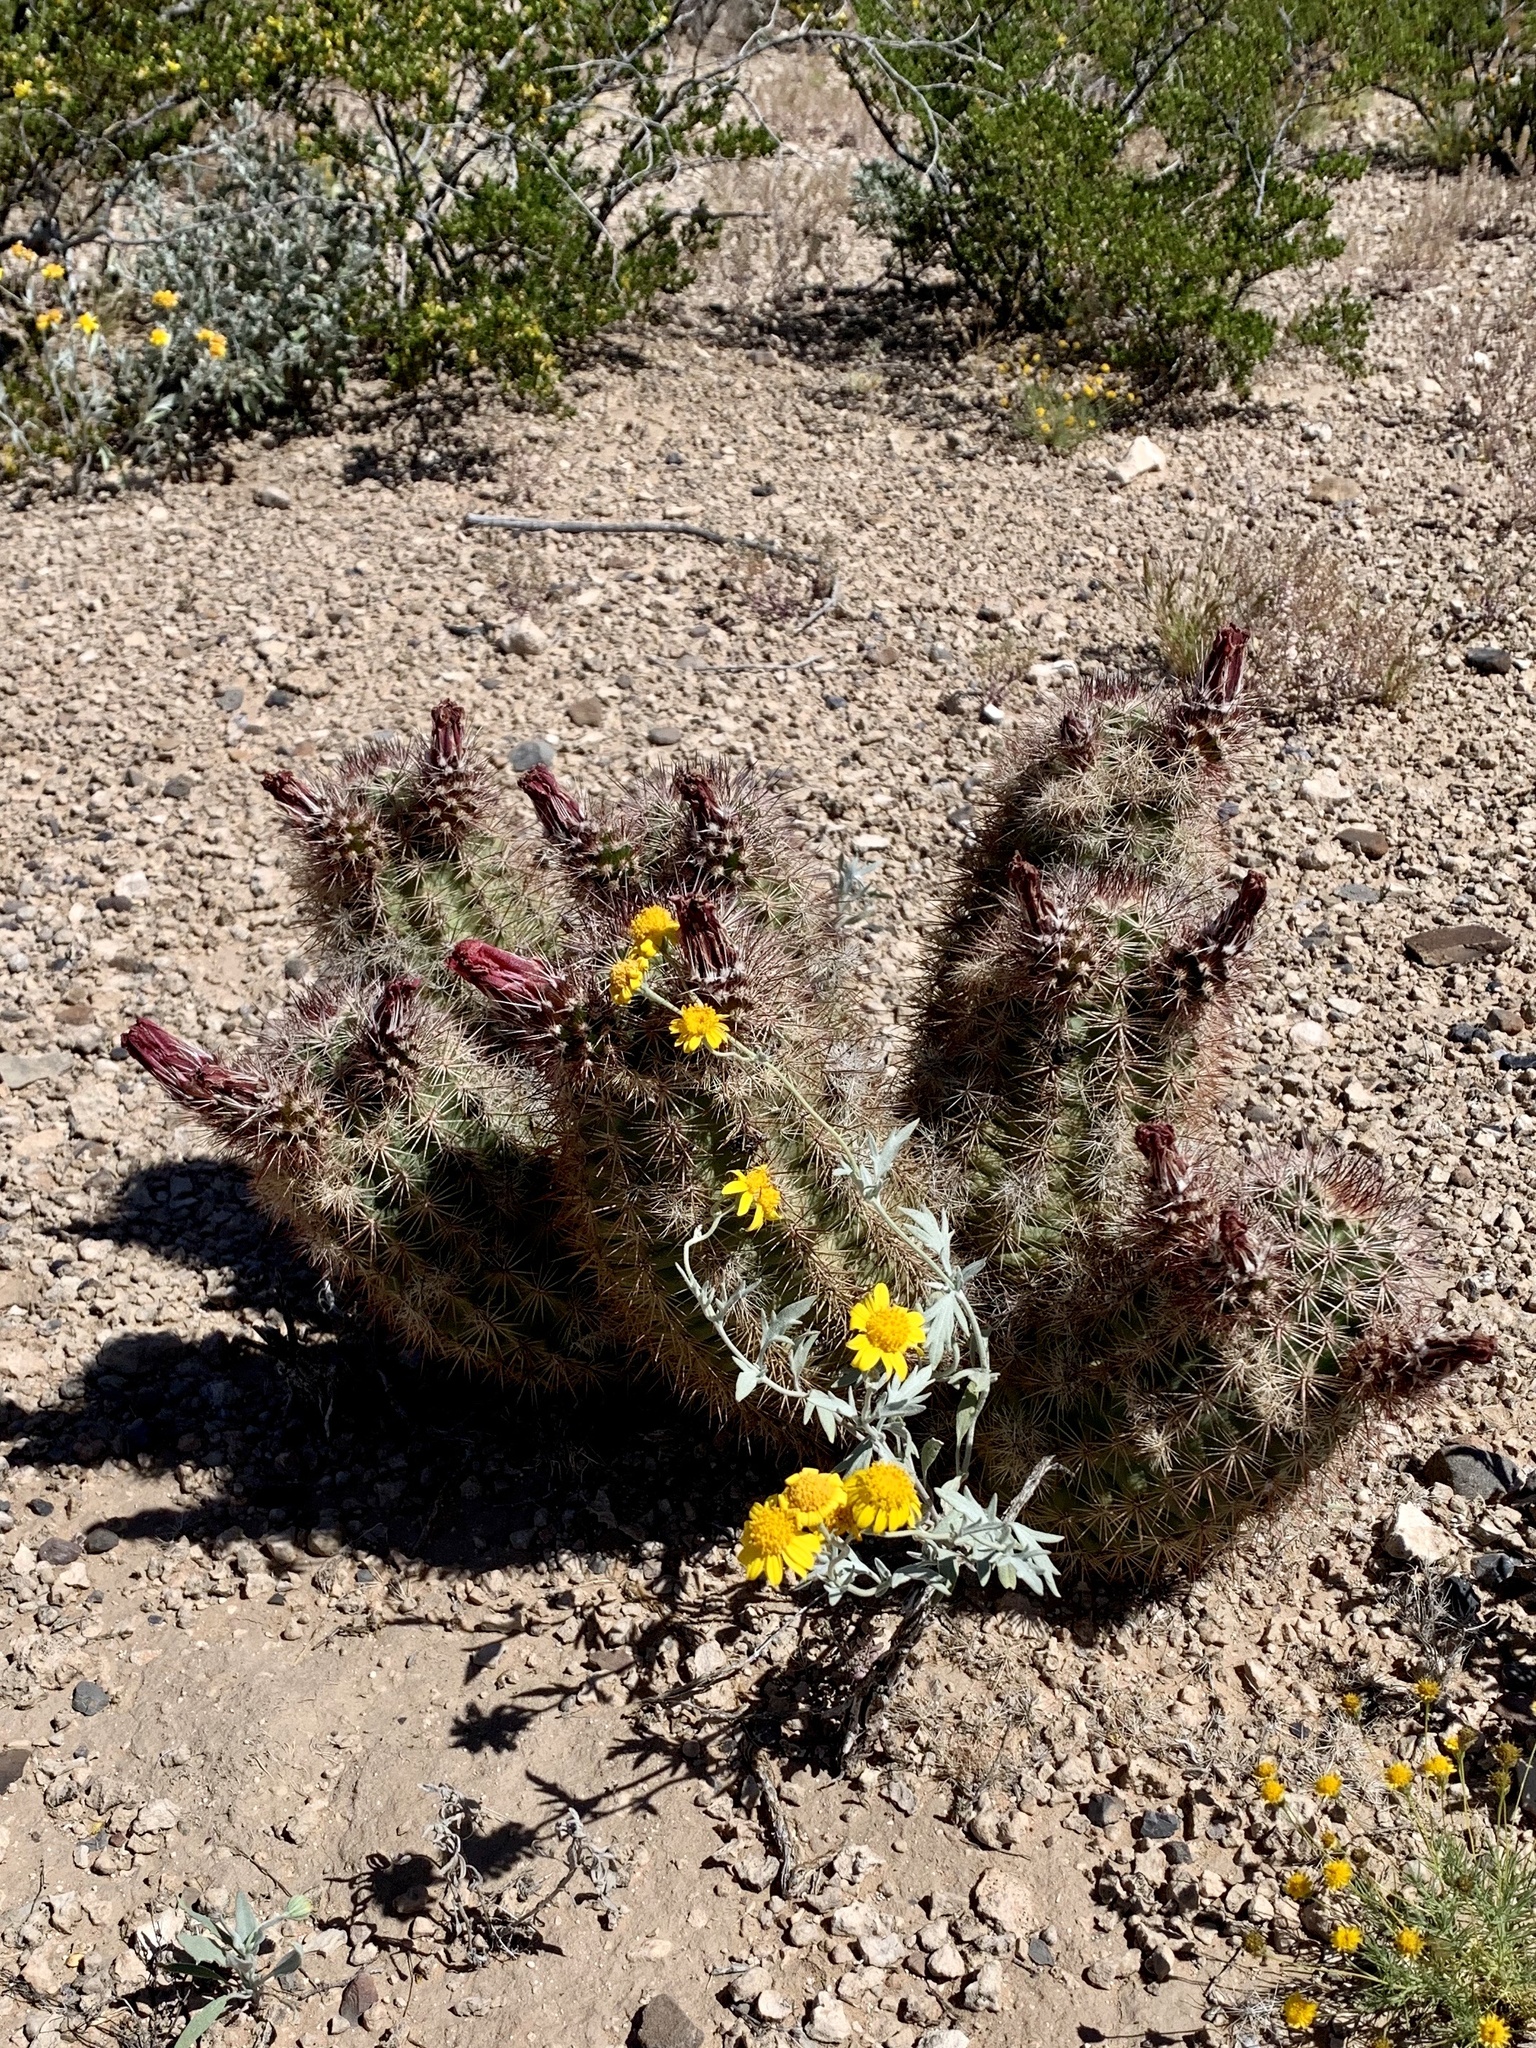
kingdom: Plantae
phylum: Tracheophyta
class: Magnoliopsida
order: Caryophyllales
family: Cactaceae
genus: Echinocereus
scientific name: Echinocereus roetteri
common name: Lloyd's hedgehog cactus
